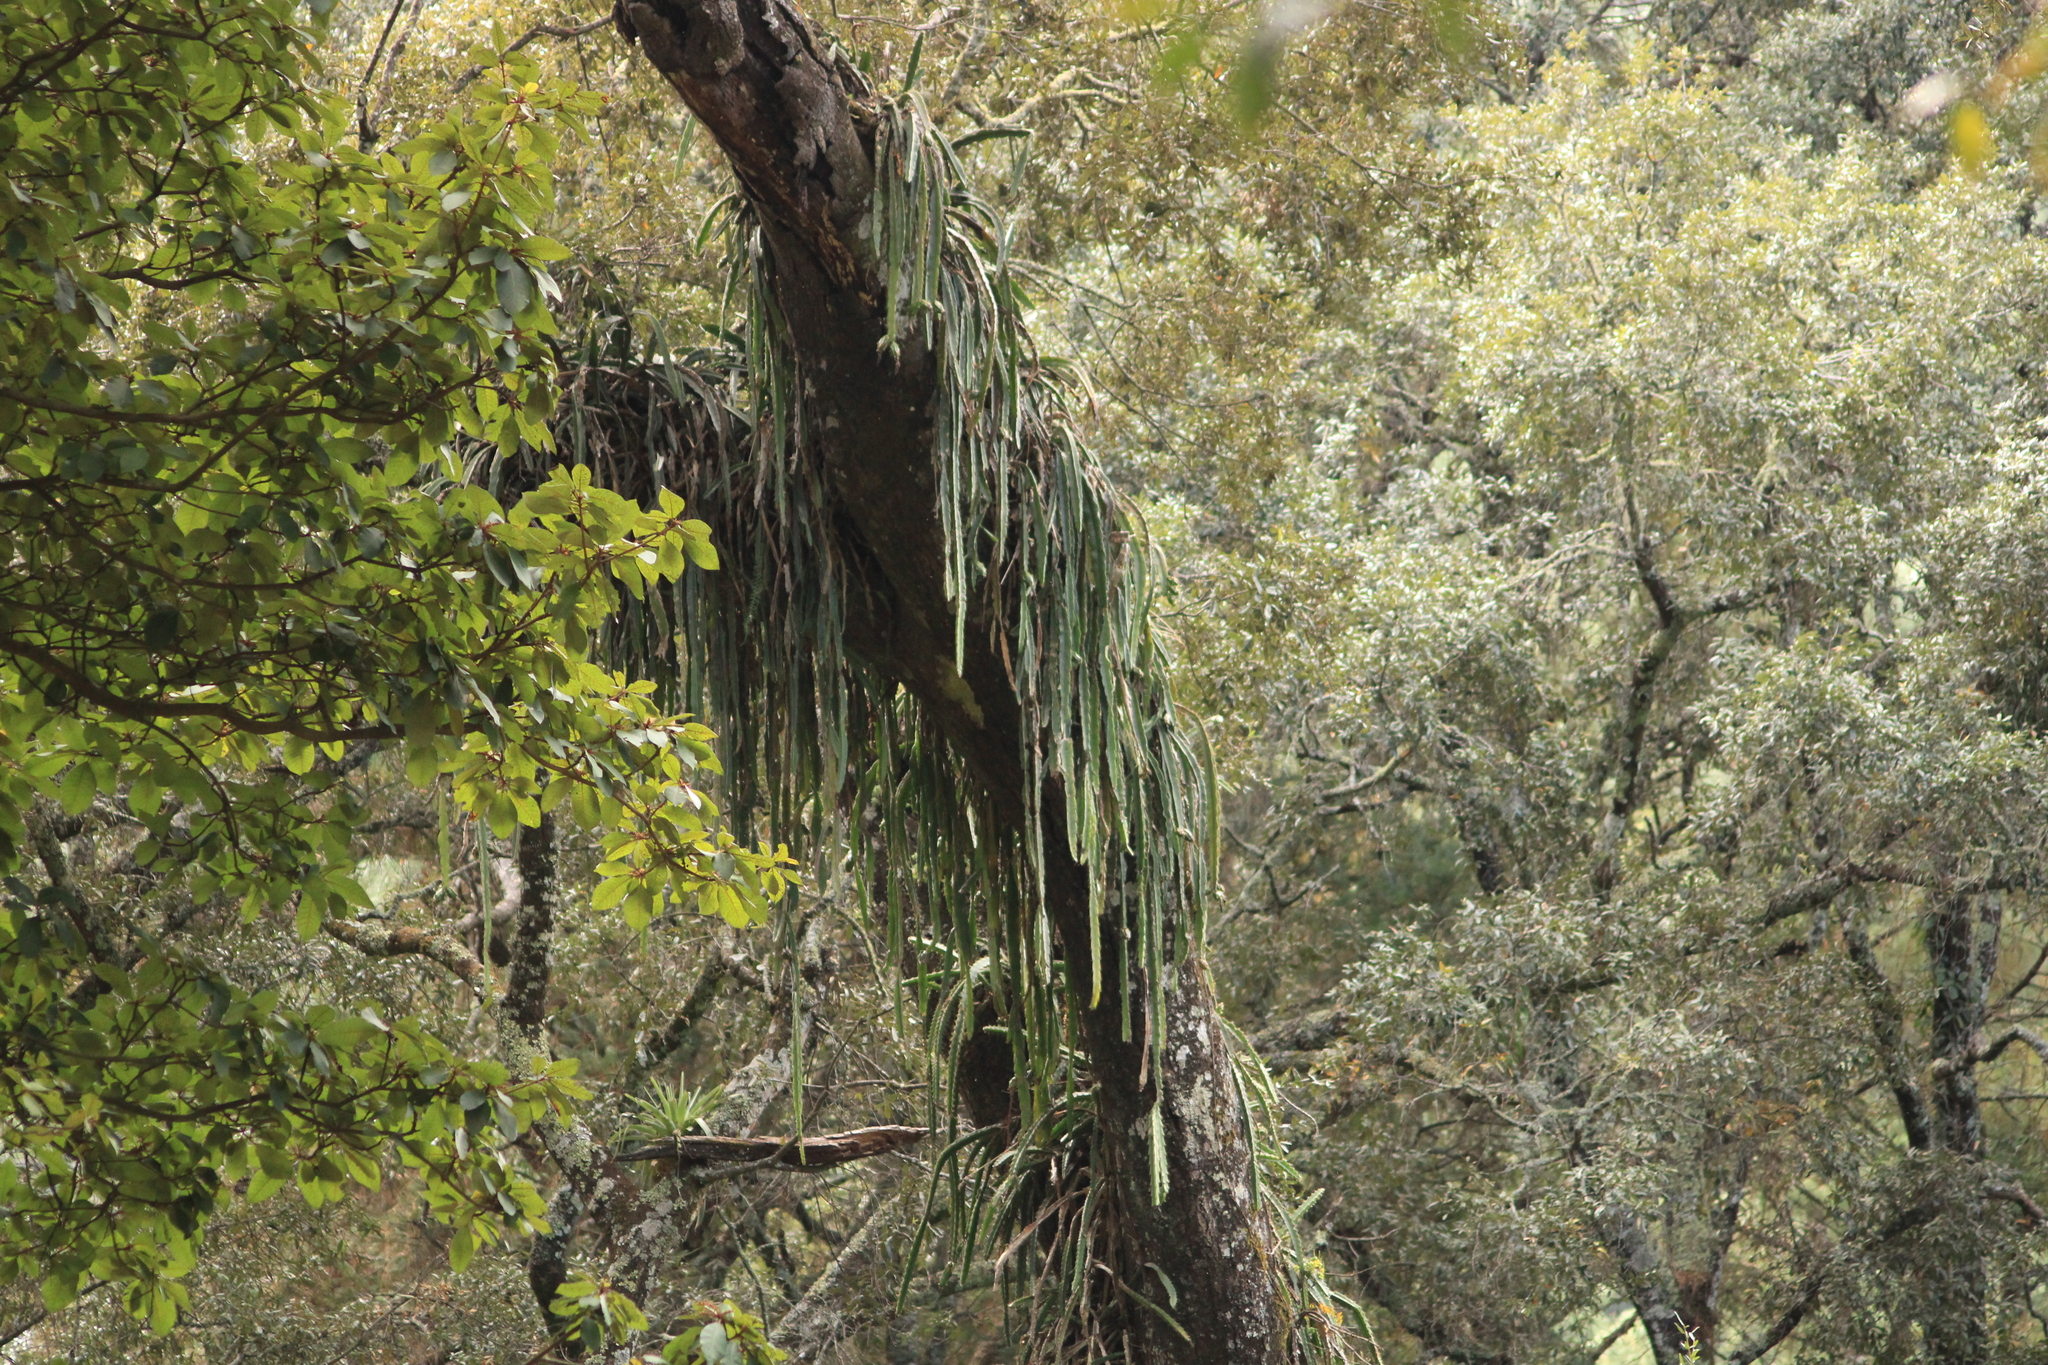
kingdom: Plantae
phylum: Tracheophyta
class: Magnoliopsida
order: Caryophyllales
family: Cactaceae
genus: Disocactus
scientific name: Disocactus speciosus
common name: Sun cereus
